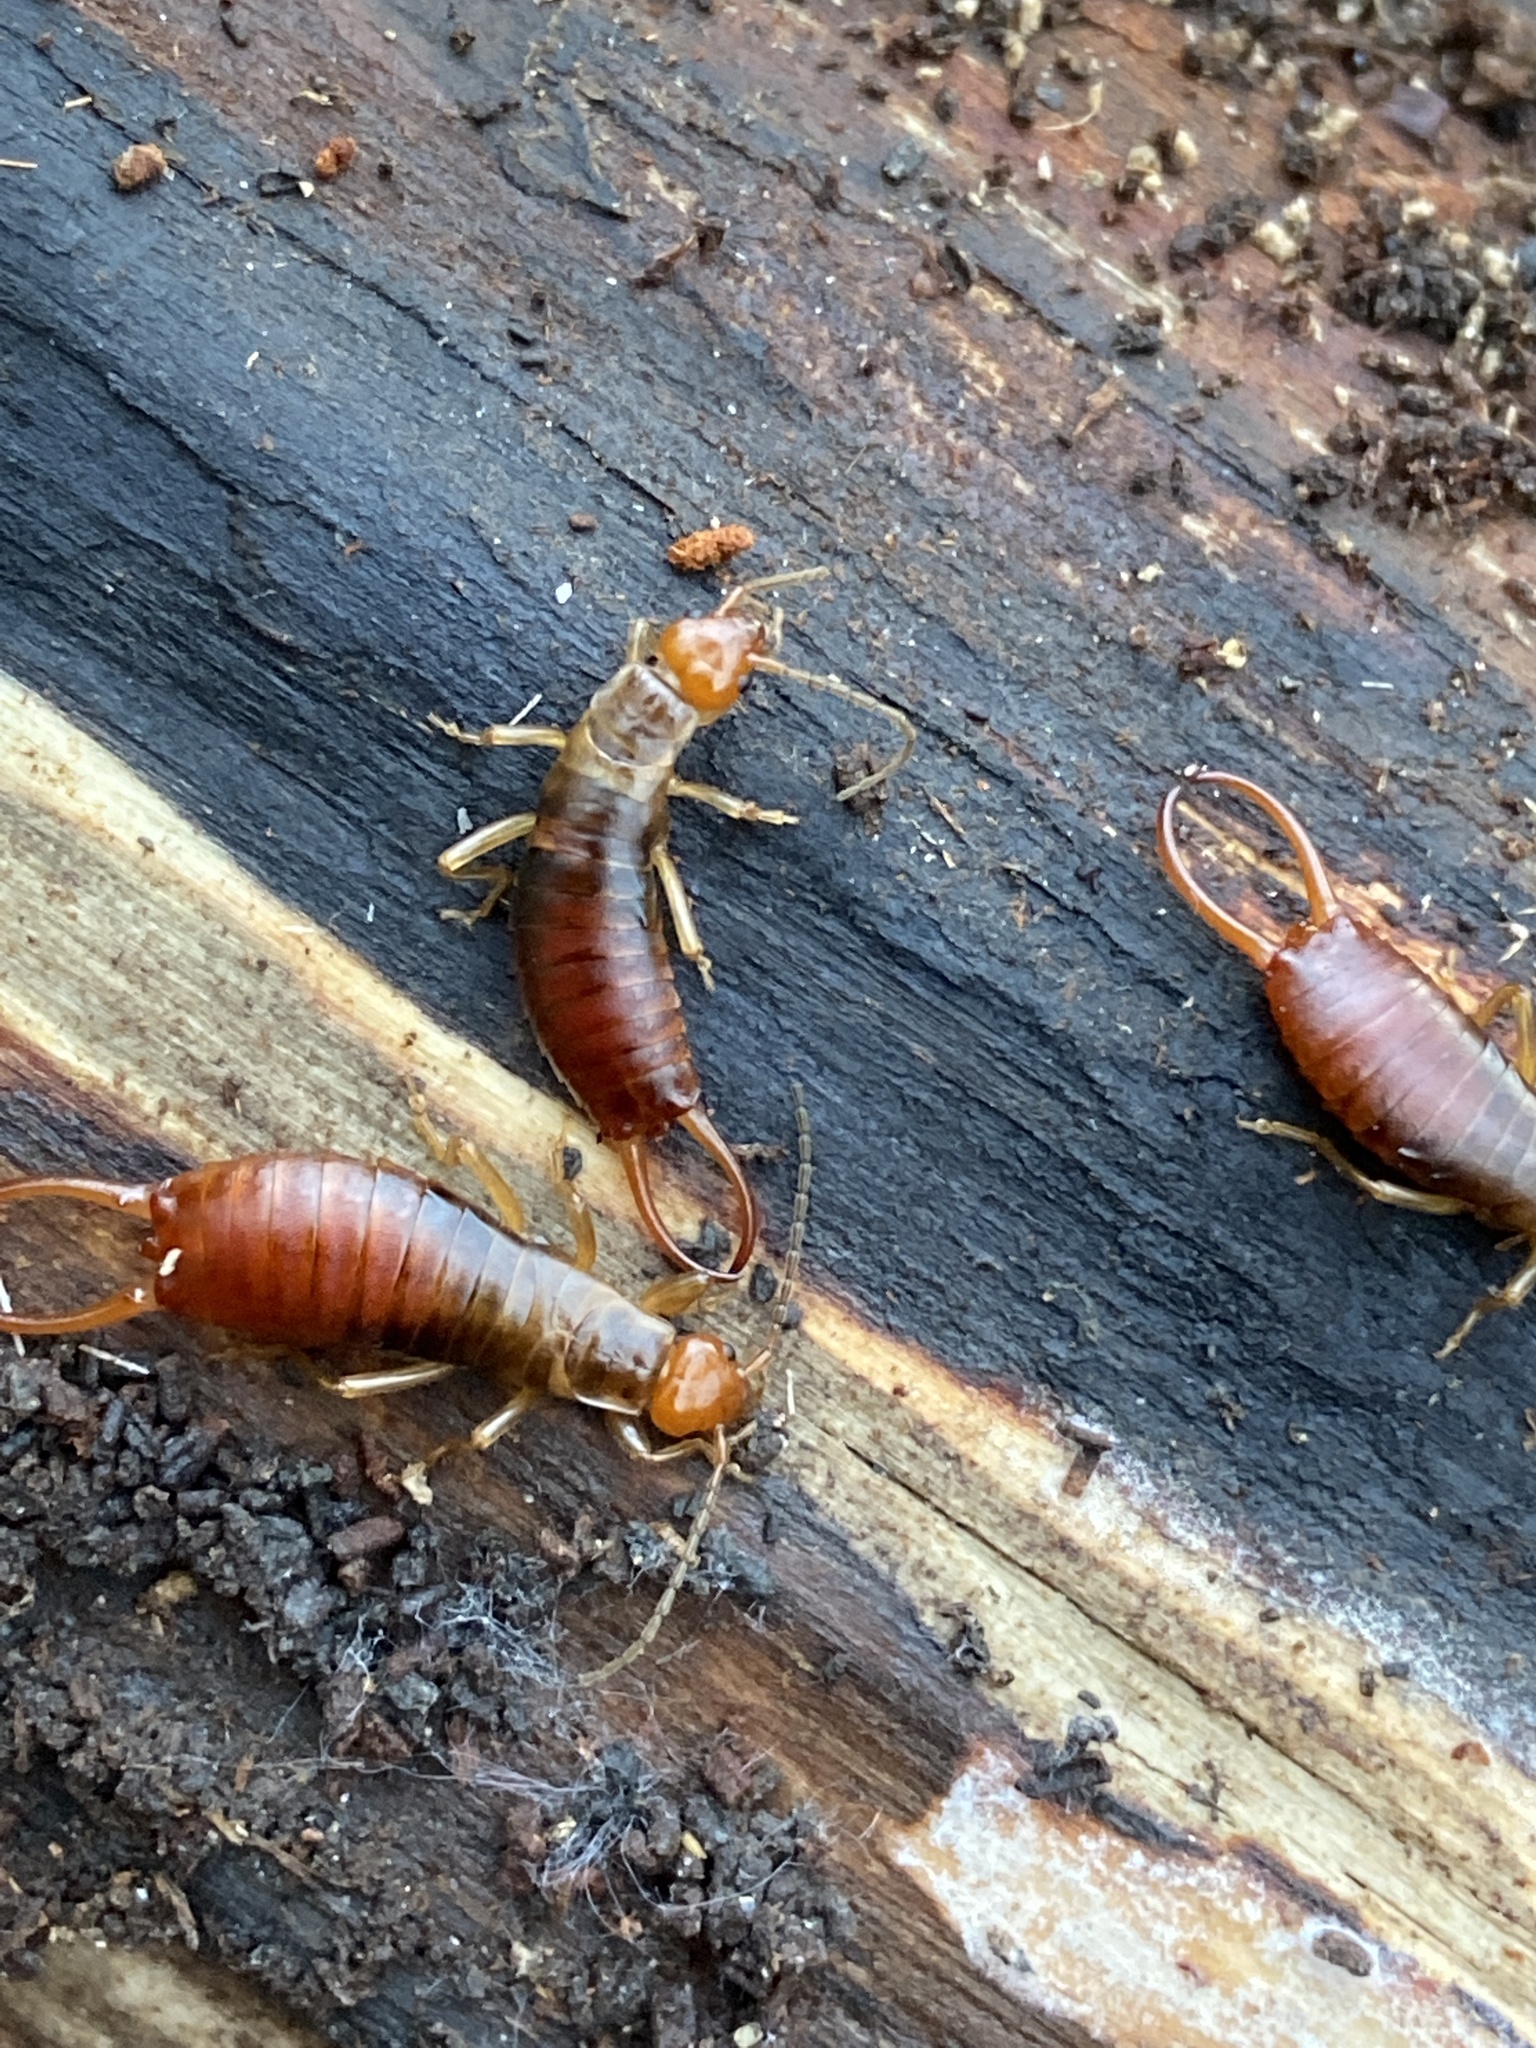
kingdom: Animalia
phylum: Arthropoda
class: Insecta
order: Dermaptera
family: Forficulidae
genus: Chelidurella
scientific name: Chelidurella acanthopygia
